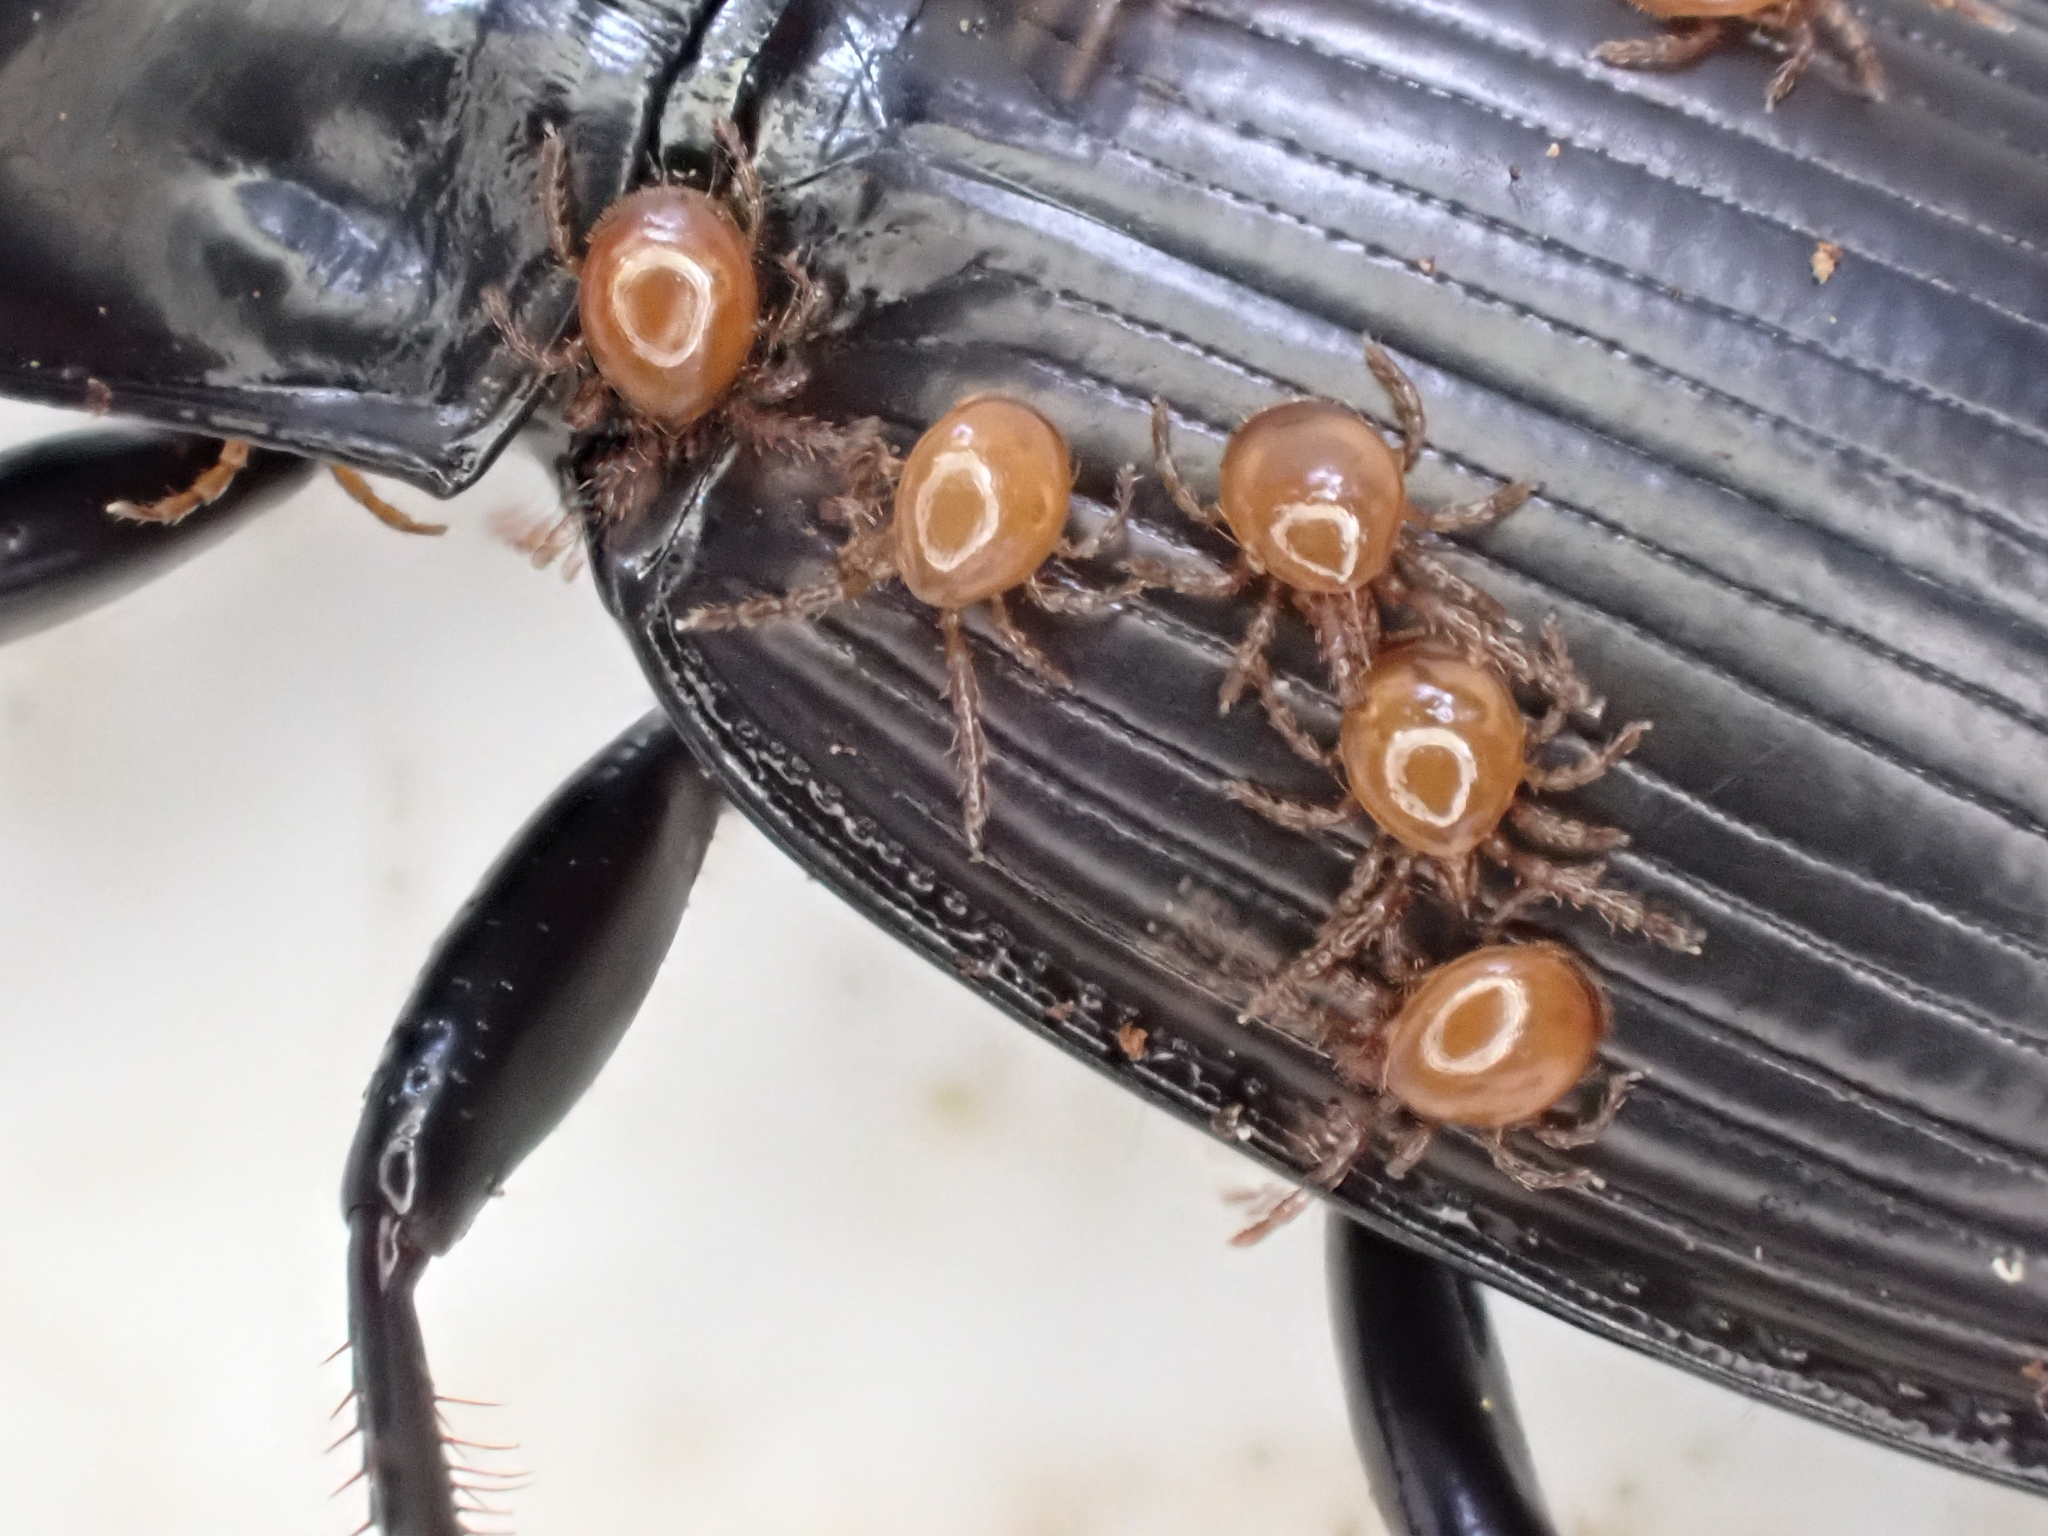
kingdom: Animalia
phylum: Arthropoda
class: Arachnida
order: Mesostigmata
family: Discozerconidae
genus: Berzercon
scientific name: Berzercon ferdinandi
